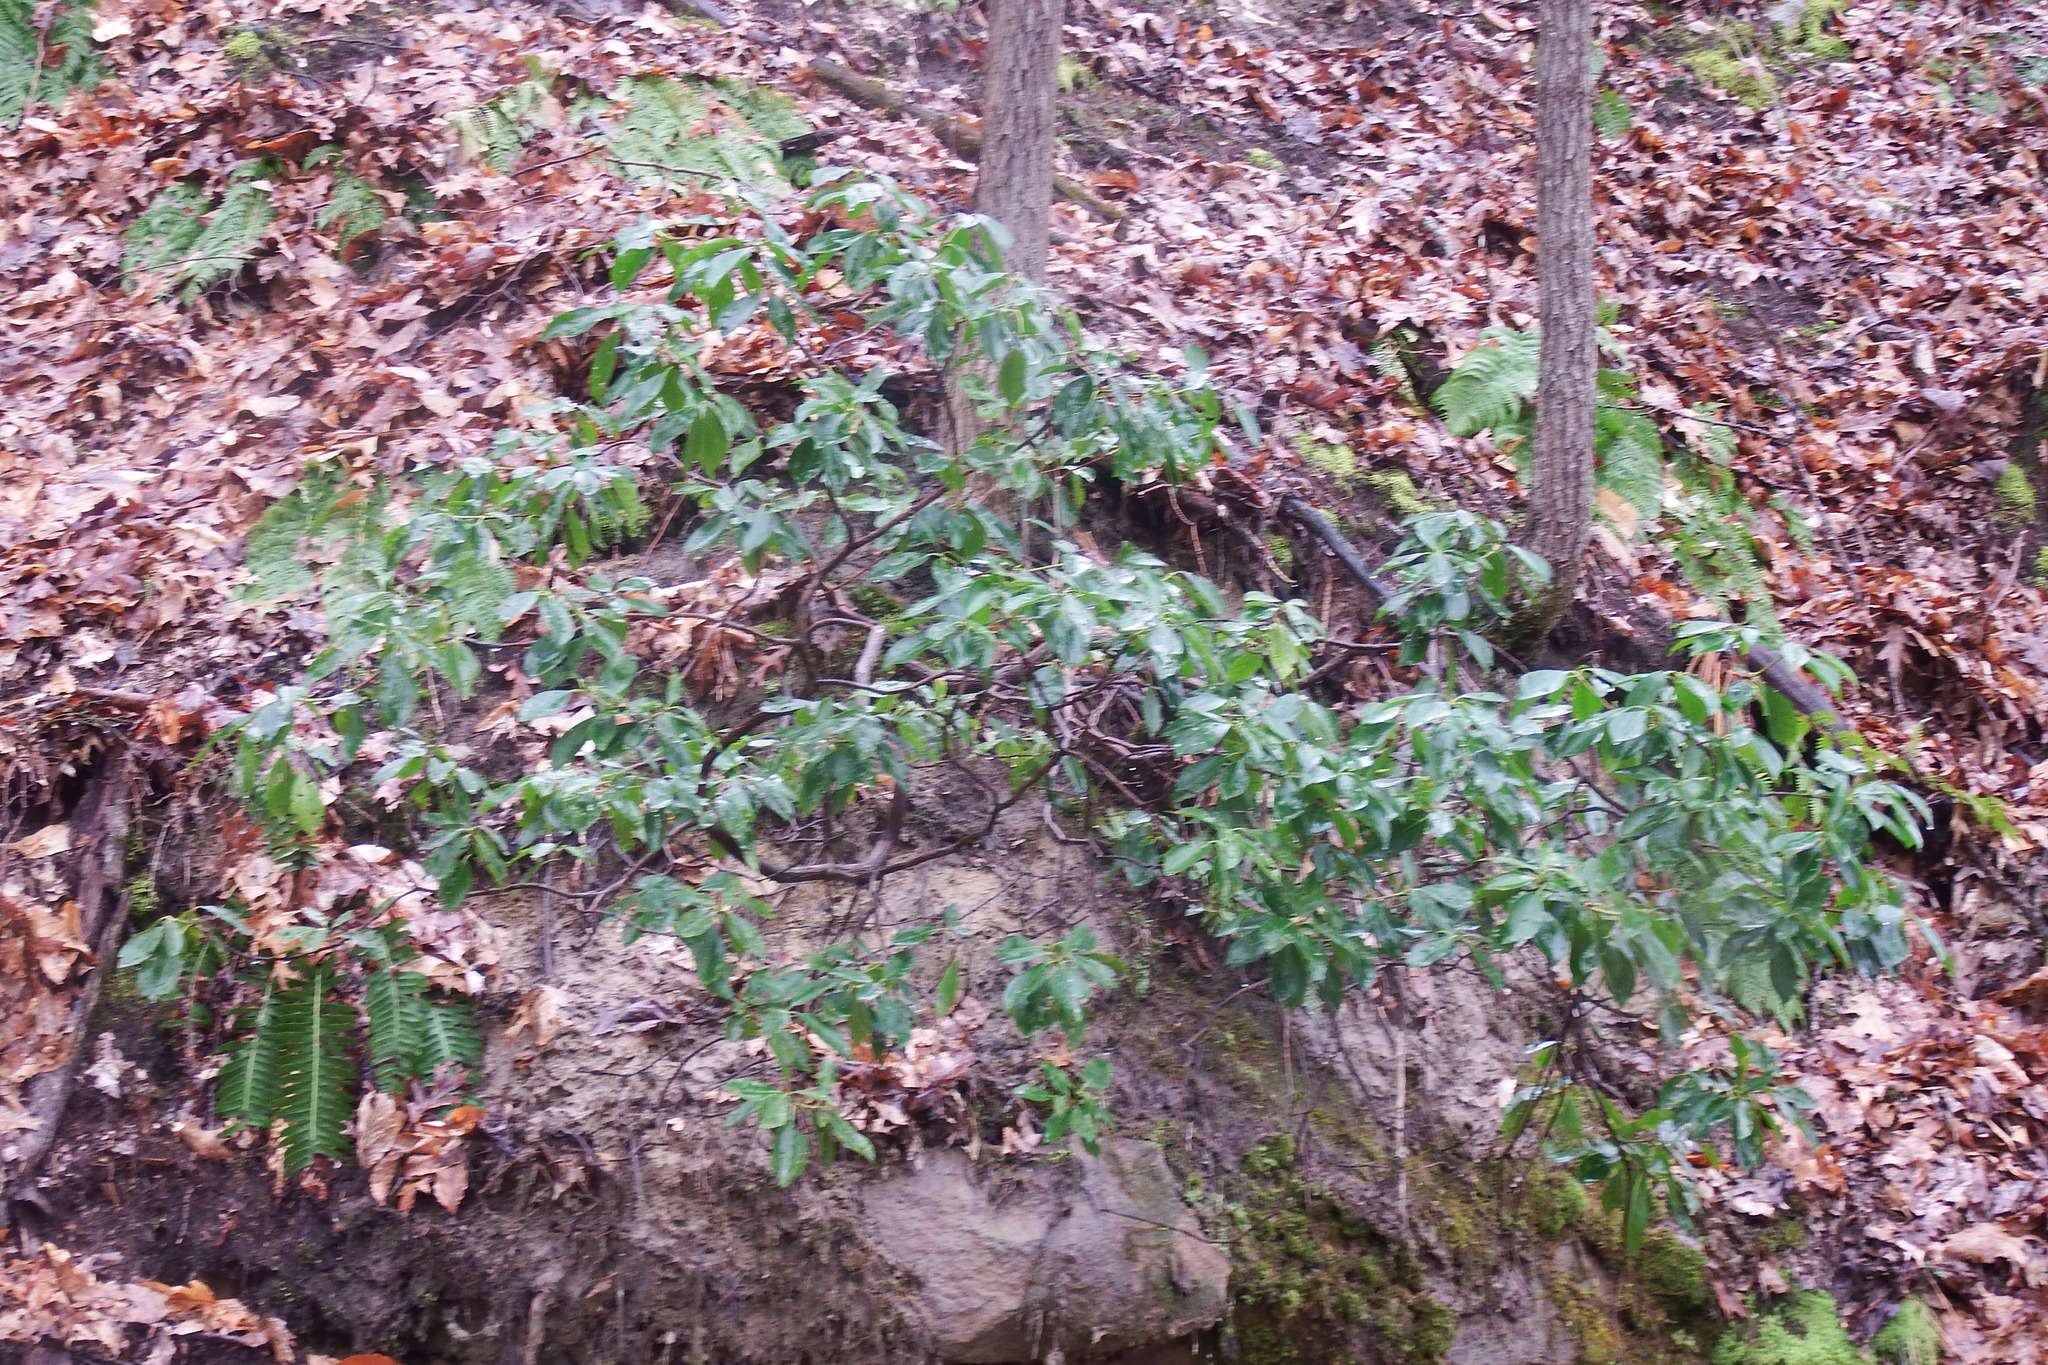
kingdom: Plantae
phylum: Tracheophyta
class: Magnoliopsida
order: Ericales
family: Ericaceae
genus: Kalmia
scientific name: Kalmia latifolia
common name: Mountain-laurel
